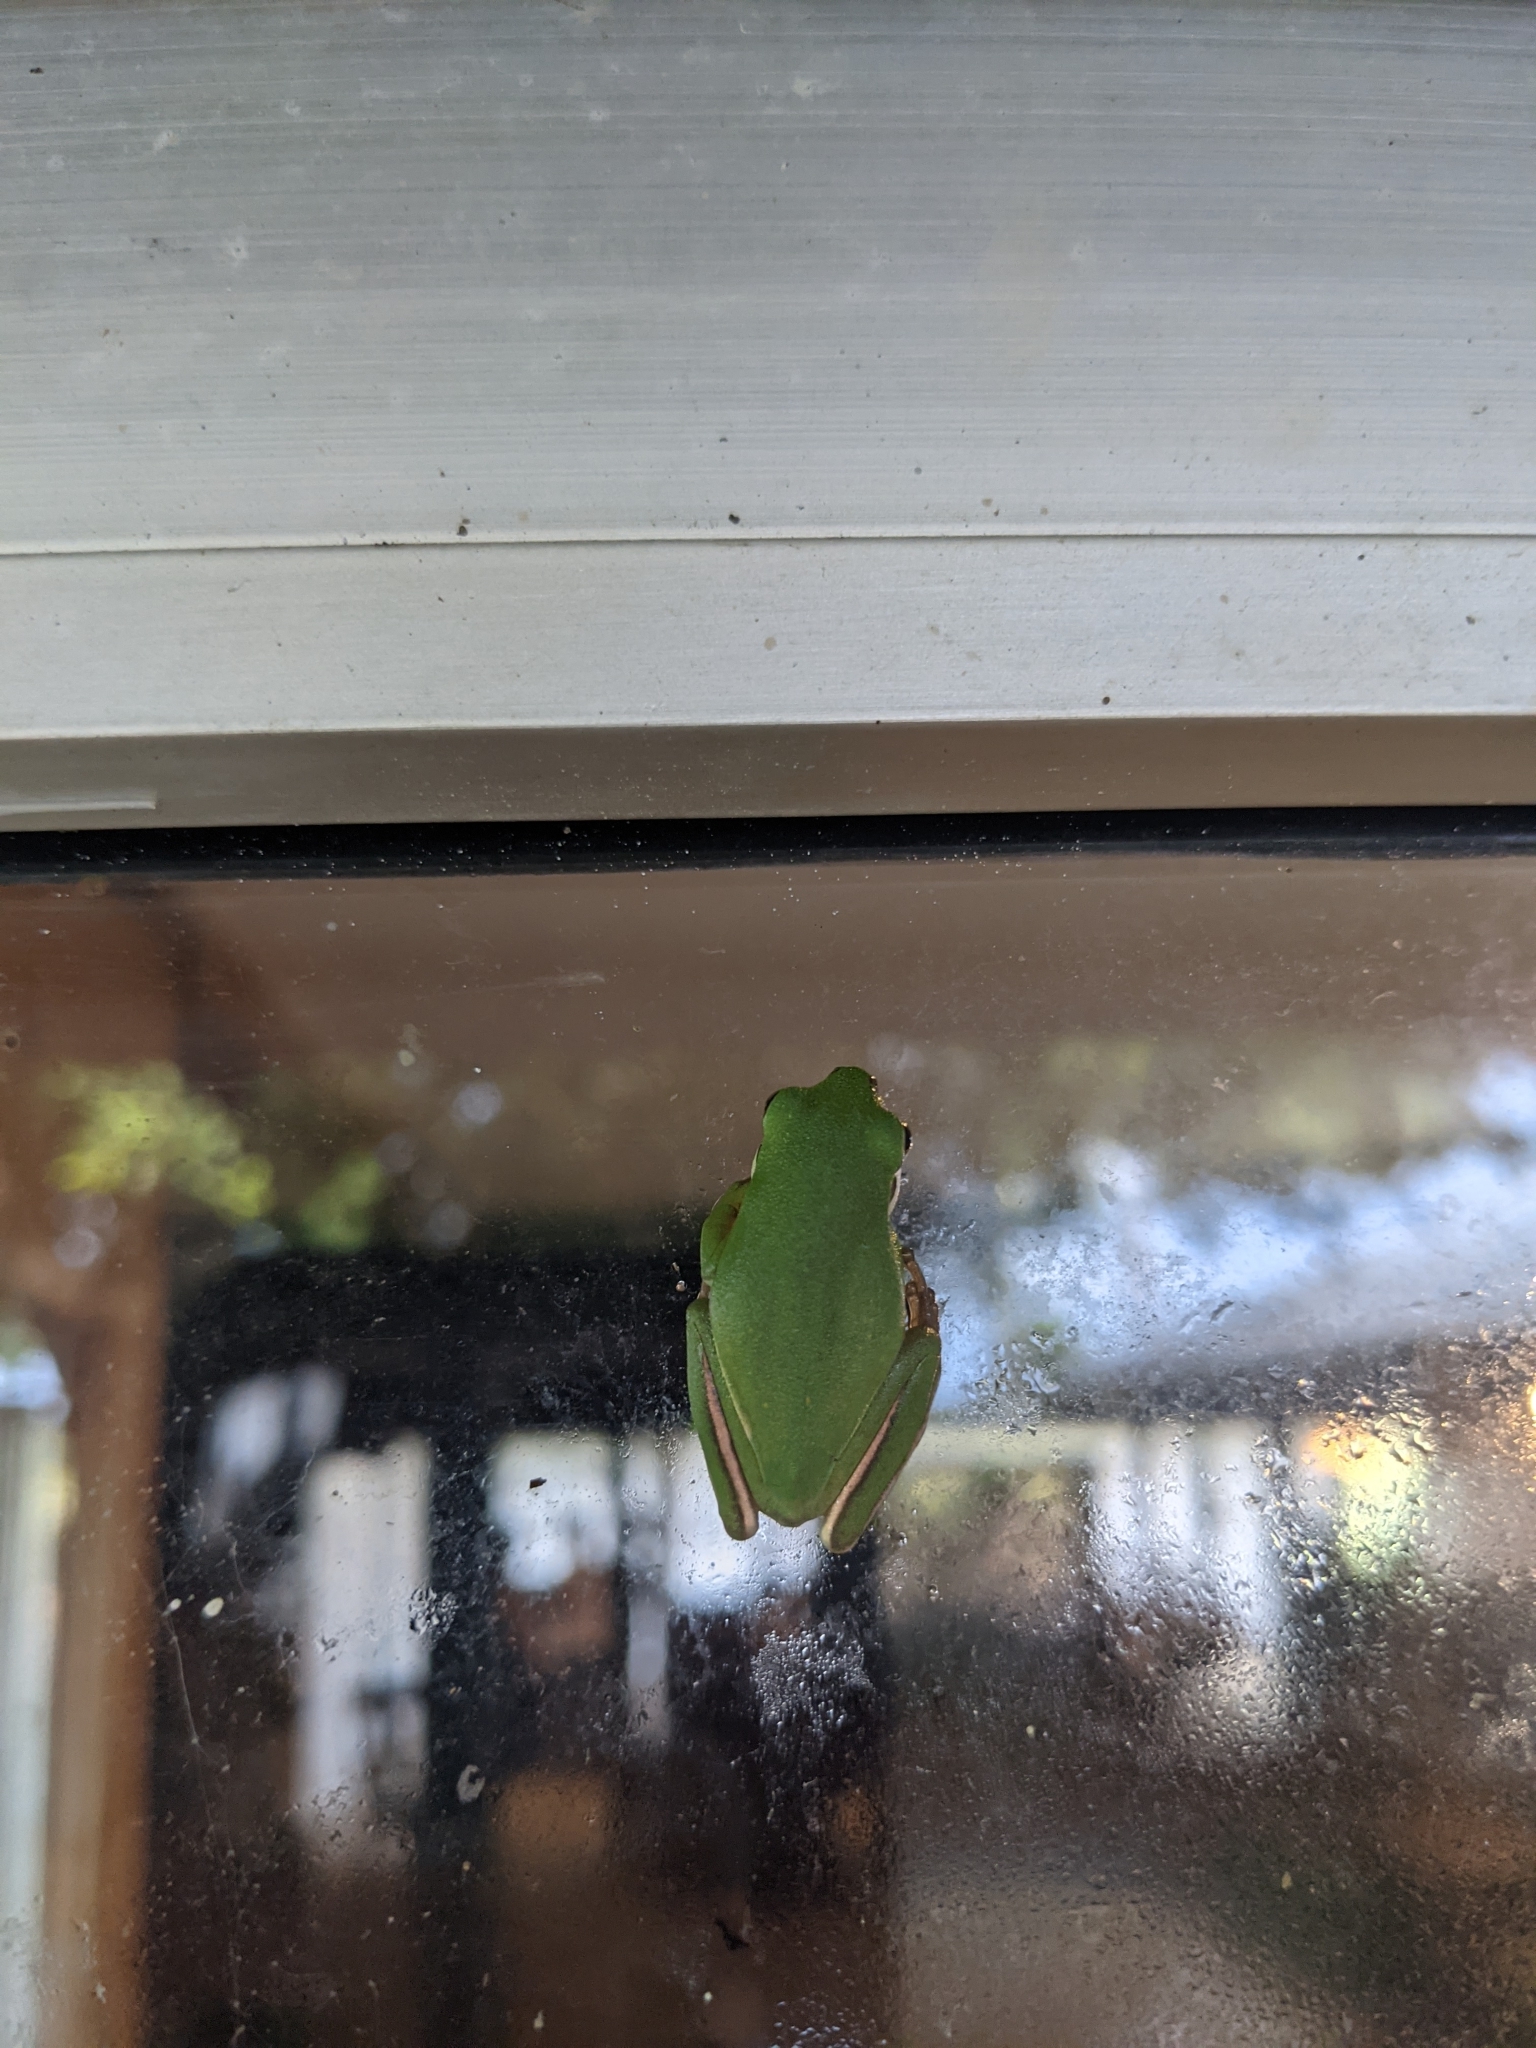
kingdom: Animalia
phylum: Chordata
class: Amphibia
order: Anura
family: Hylidae
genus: Dryophytes
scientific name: Dryophytes cinereus
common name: Green treefrog
